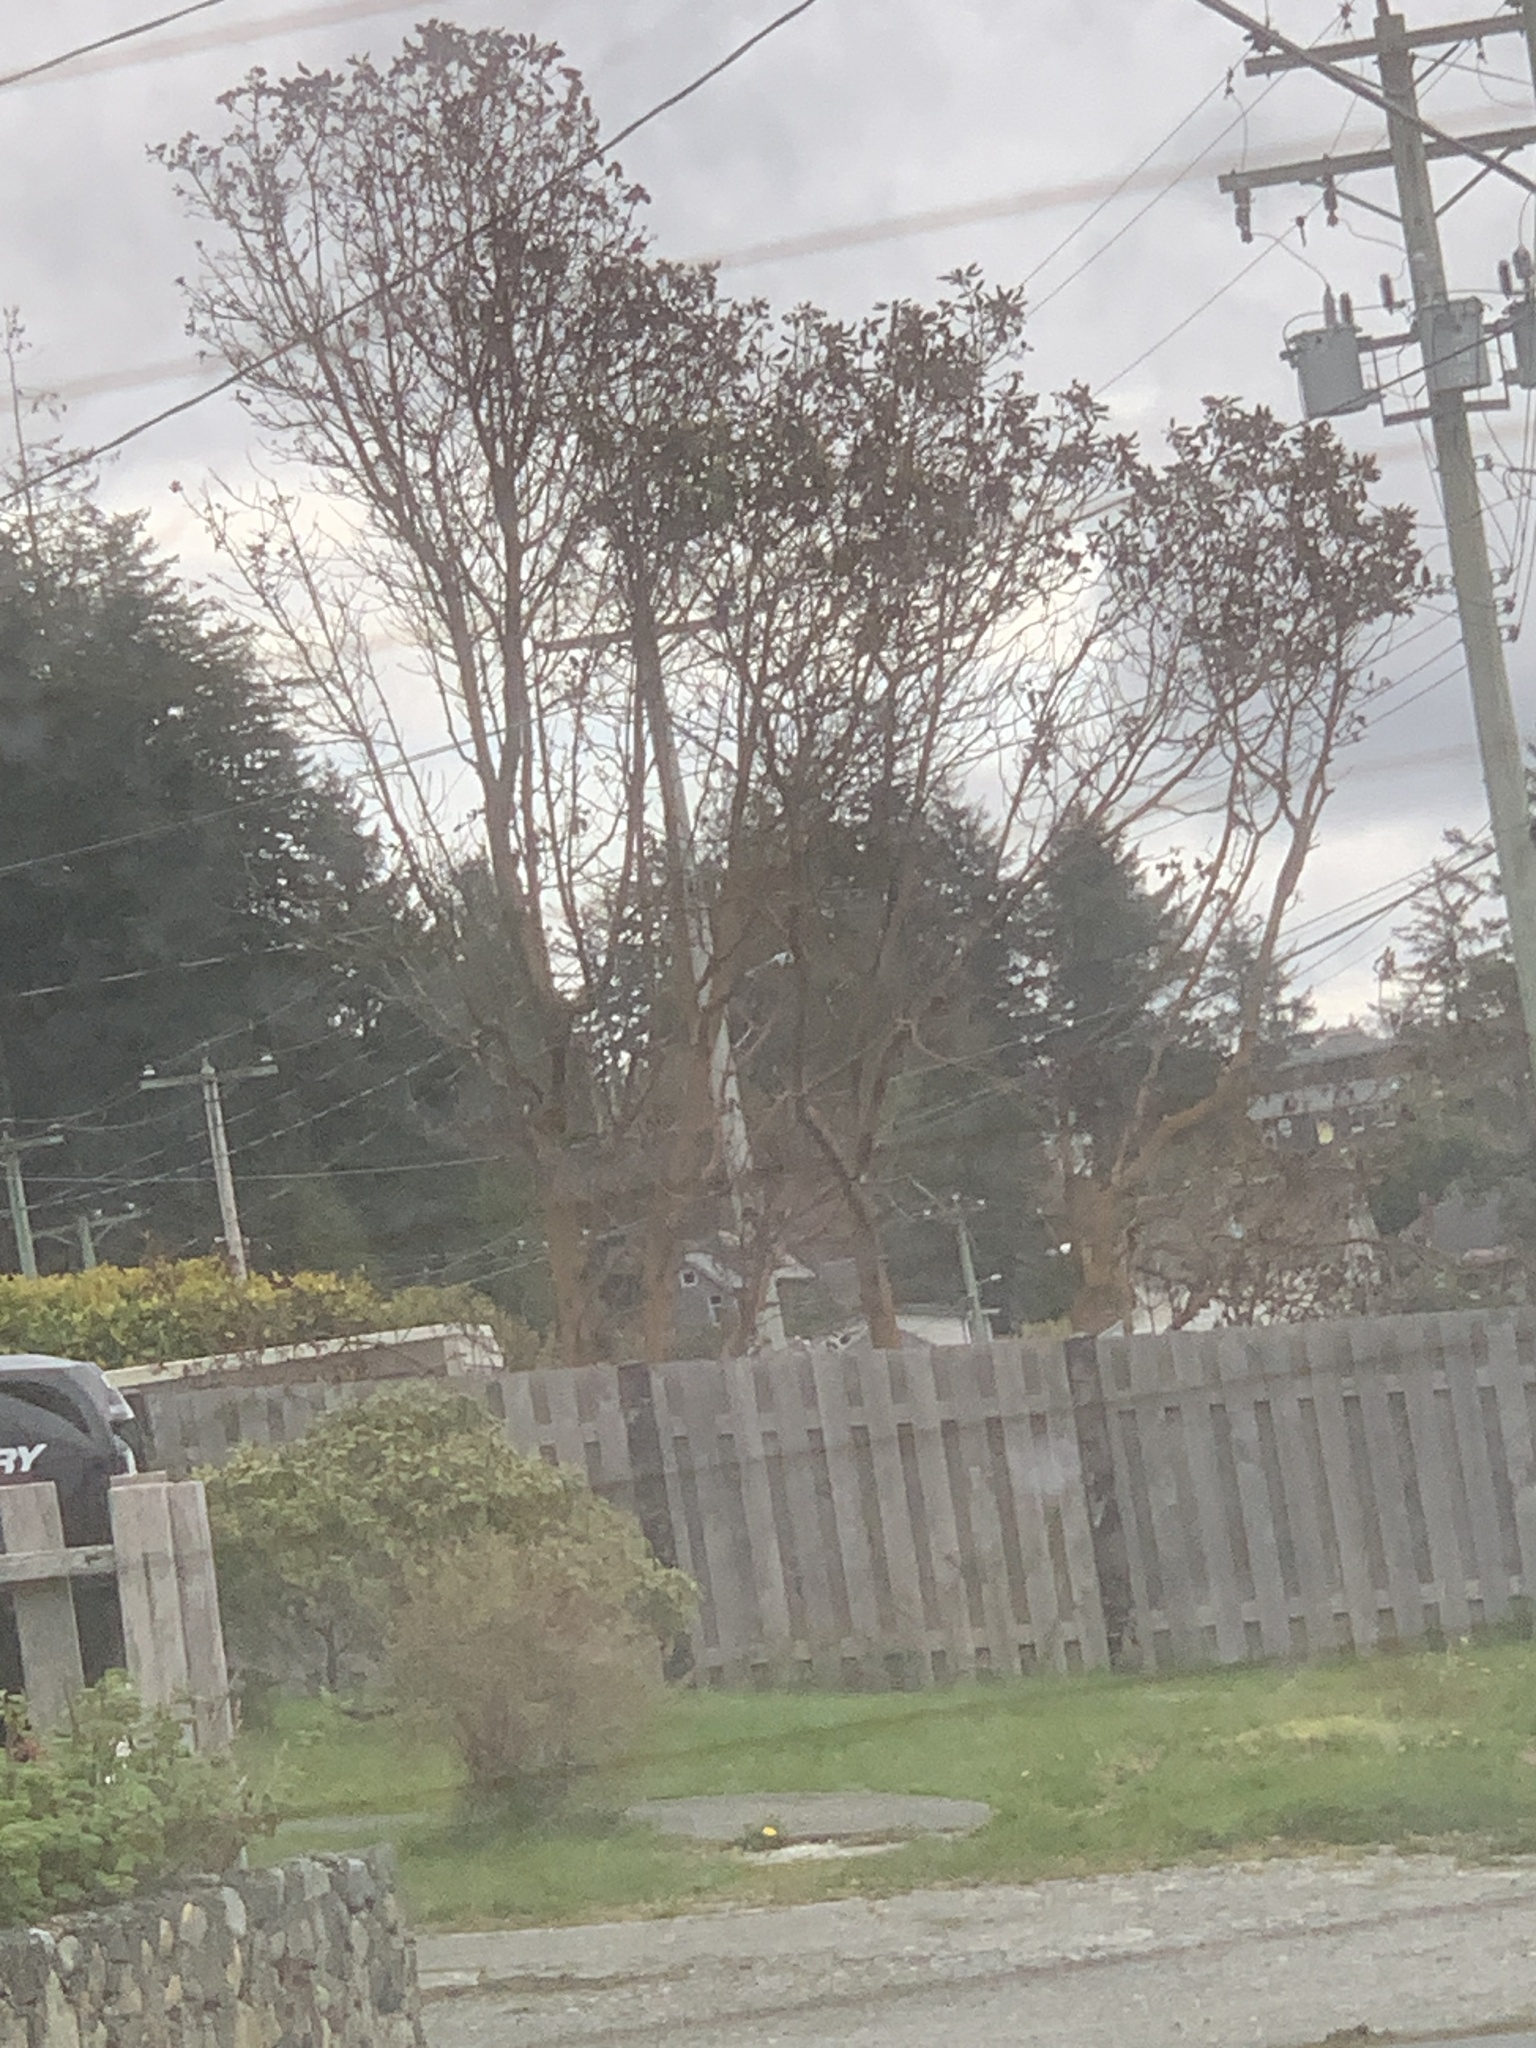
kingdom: Plantae
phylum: Tracheophyta
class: Magnoliopsida
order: Ericales
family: Ericaceae
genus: Arbutus
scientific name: Arbutus menziesii
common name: Pacific madrone
